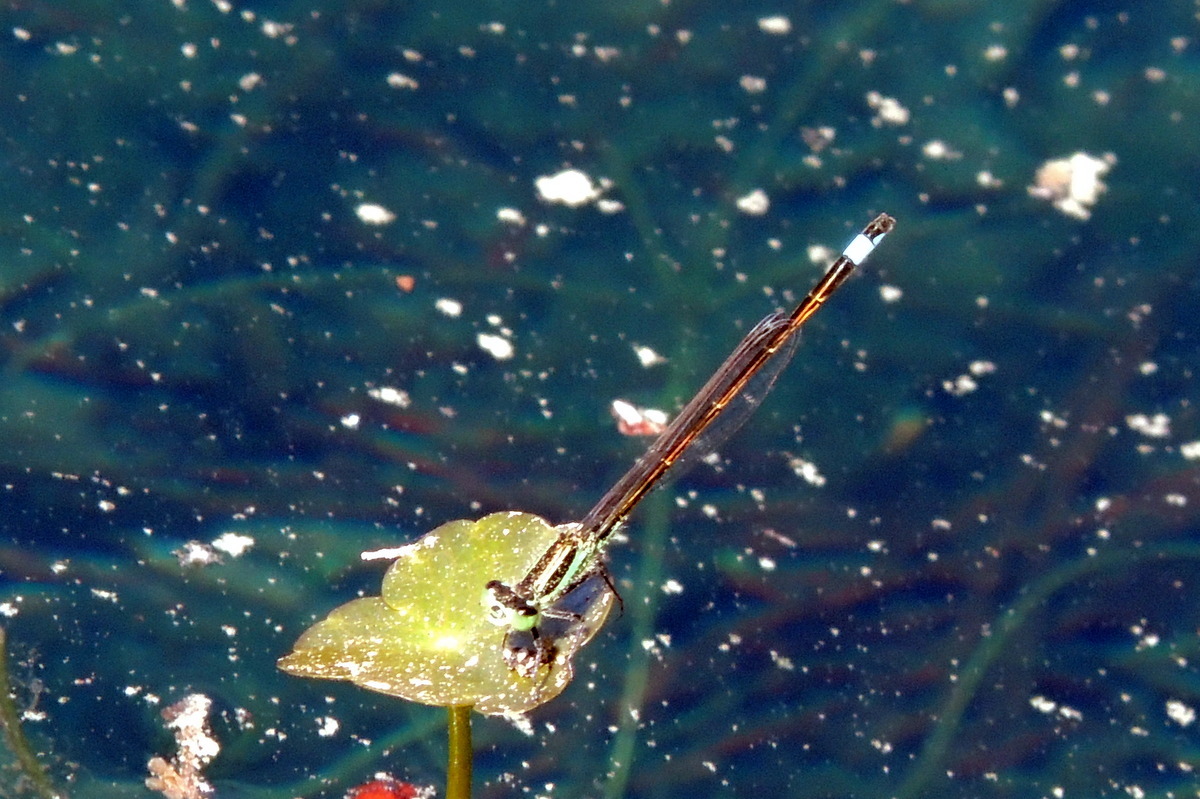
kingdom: Animalia
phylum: Arthropoda
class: Insecta
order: Odonata
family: Coenagrionidae
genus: Ischnura
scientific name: Ischnura ramburii
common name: Rambur's forktail
